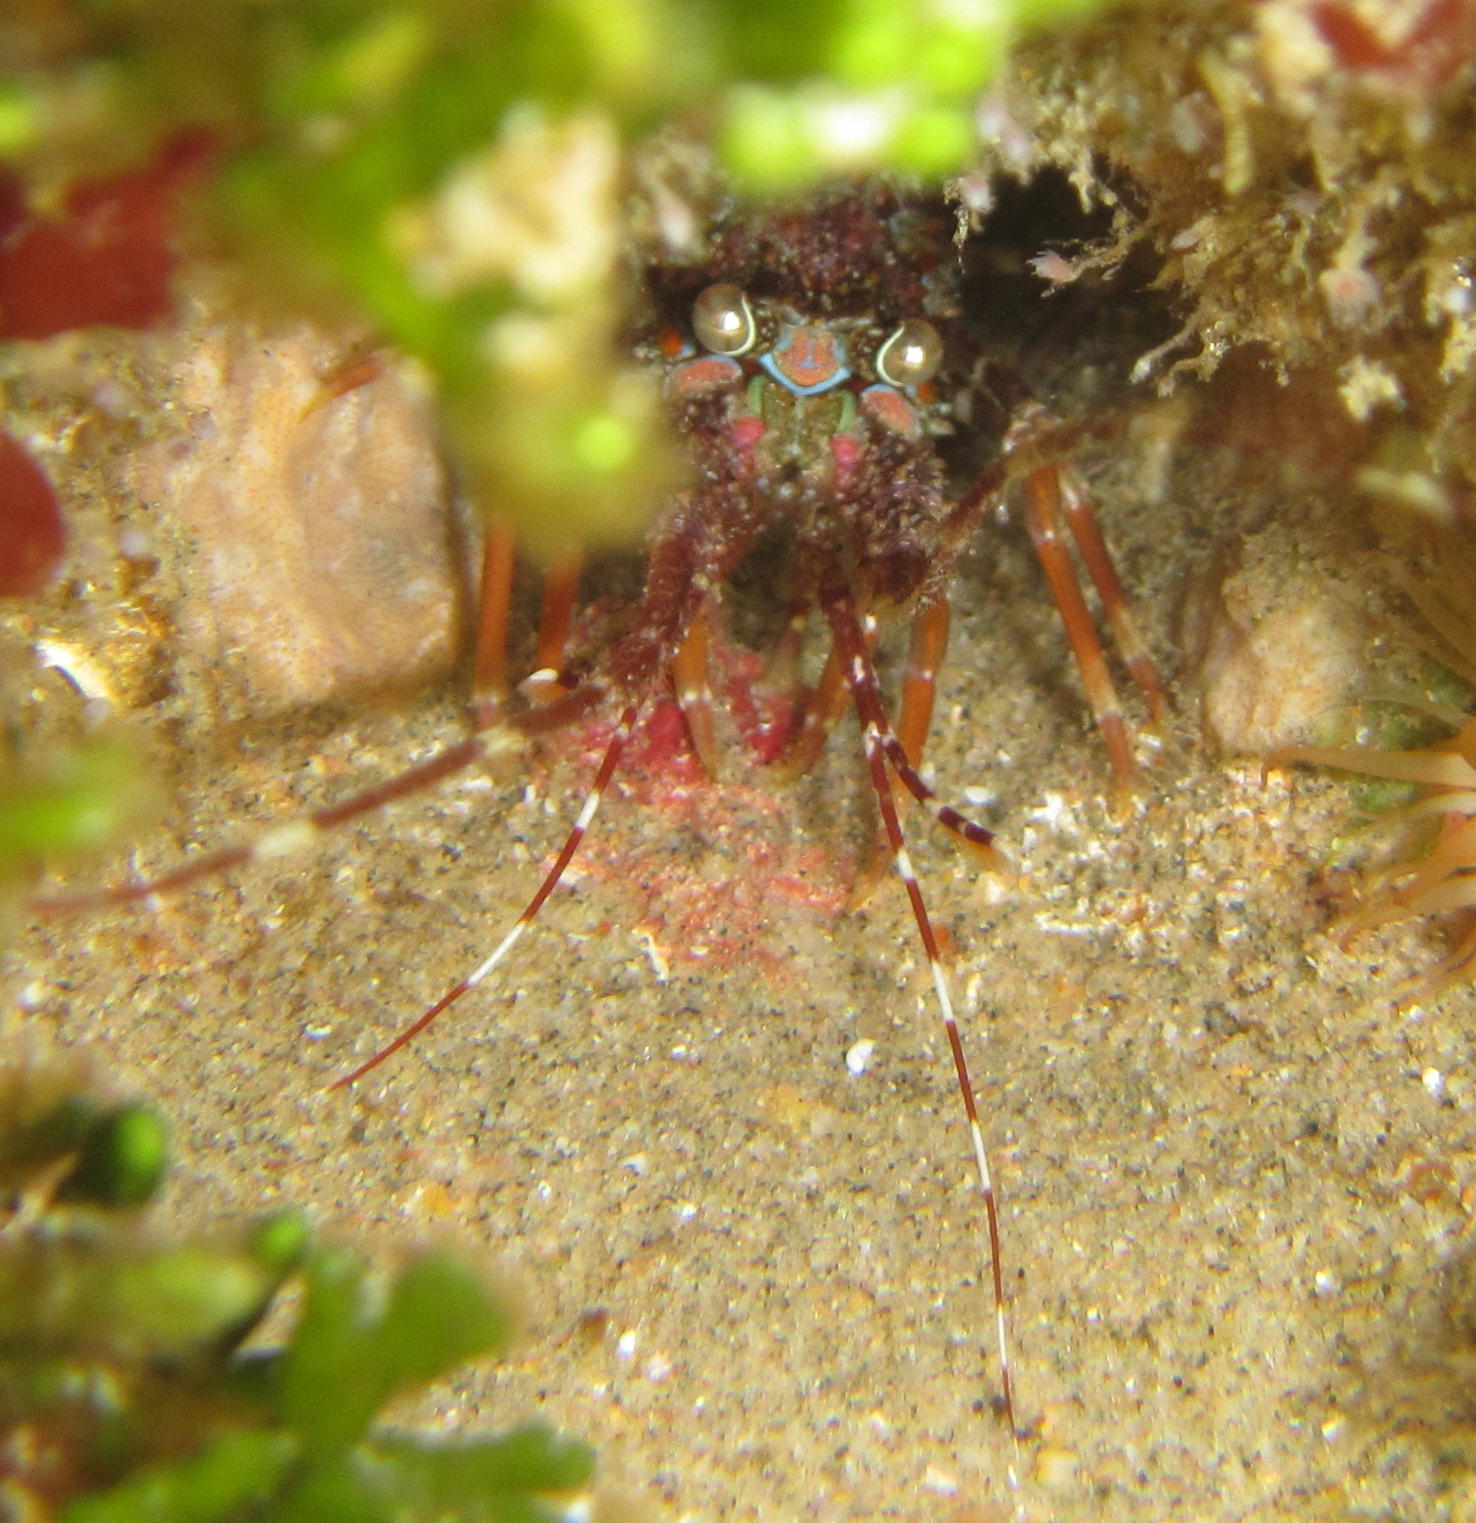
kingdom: Animalia
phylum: Arthropoda
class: Malacostraca
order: Decapoda
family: Palinuridae
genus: Panulirus
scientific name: Panulirus homarus
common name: Scalloped spiny lobster
